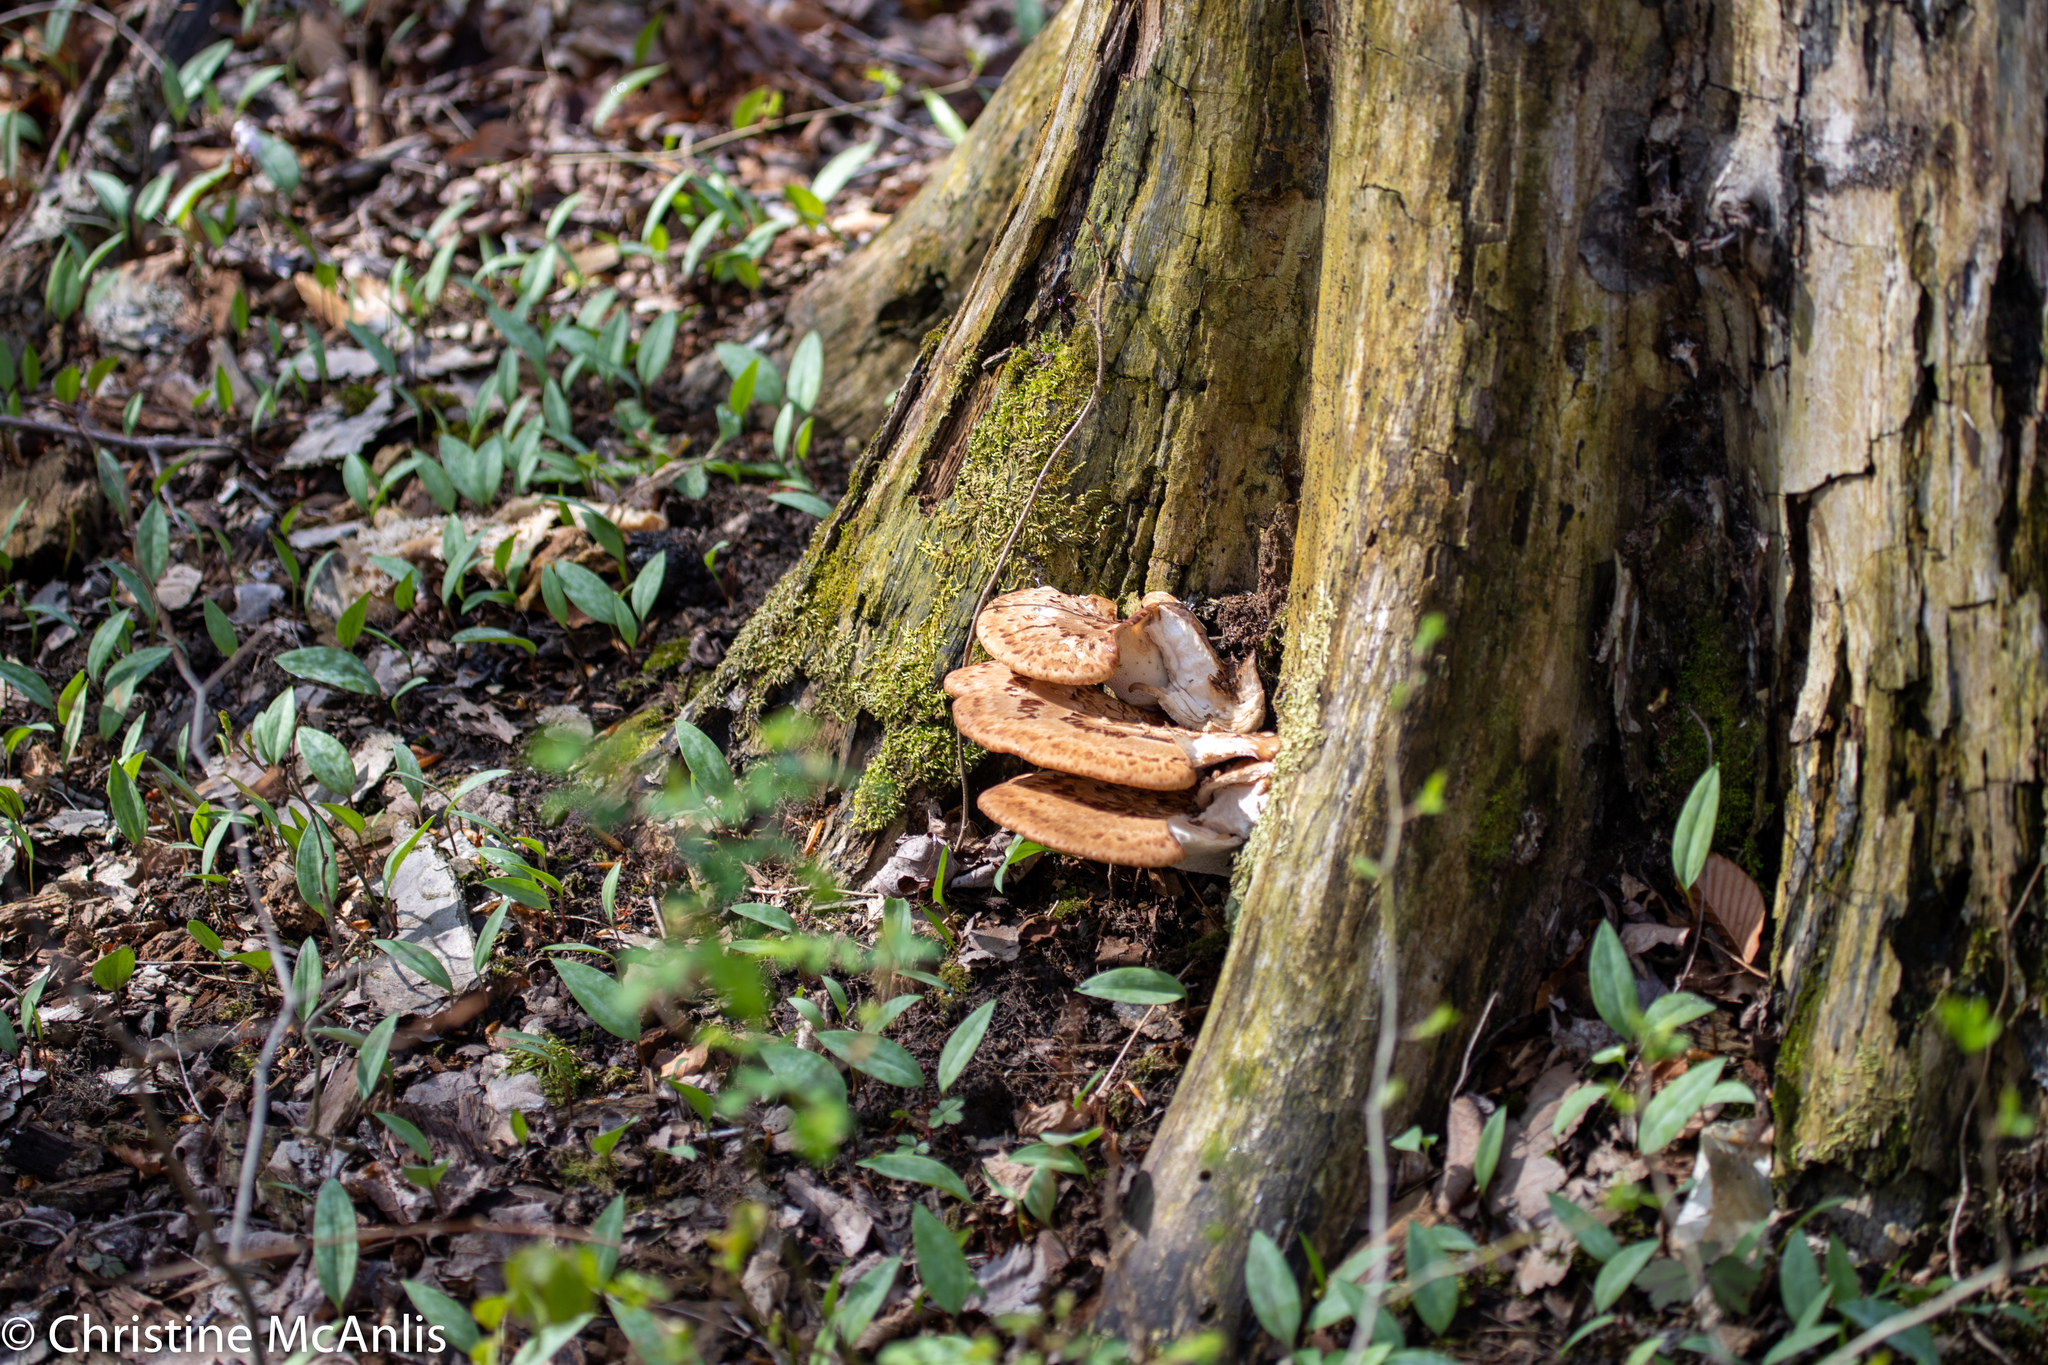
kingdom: Fungi
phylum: Basidiomycota
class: Agaricomycetes
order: Polyporales
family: Polyporaceae
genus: Cerioporus
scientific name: Cerioporus squamosus
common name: Dryad's saddle
